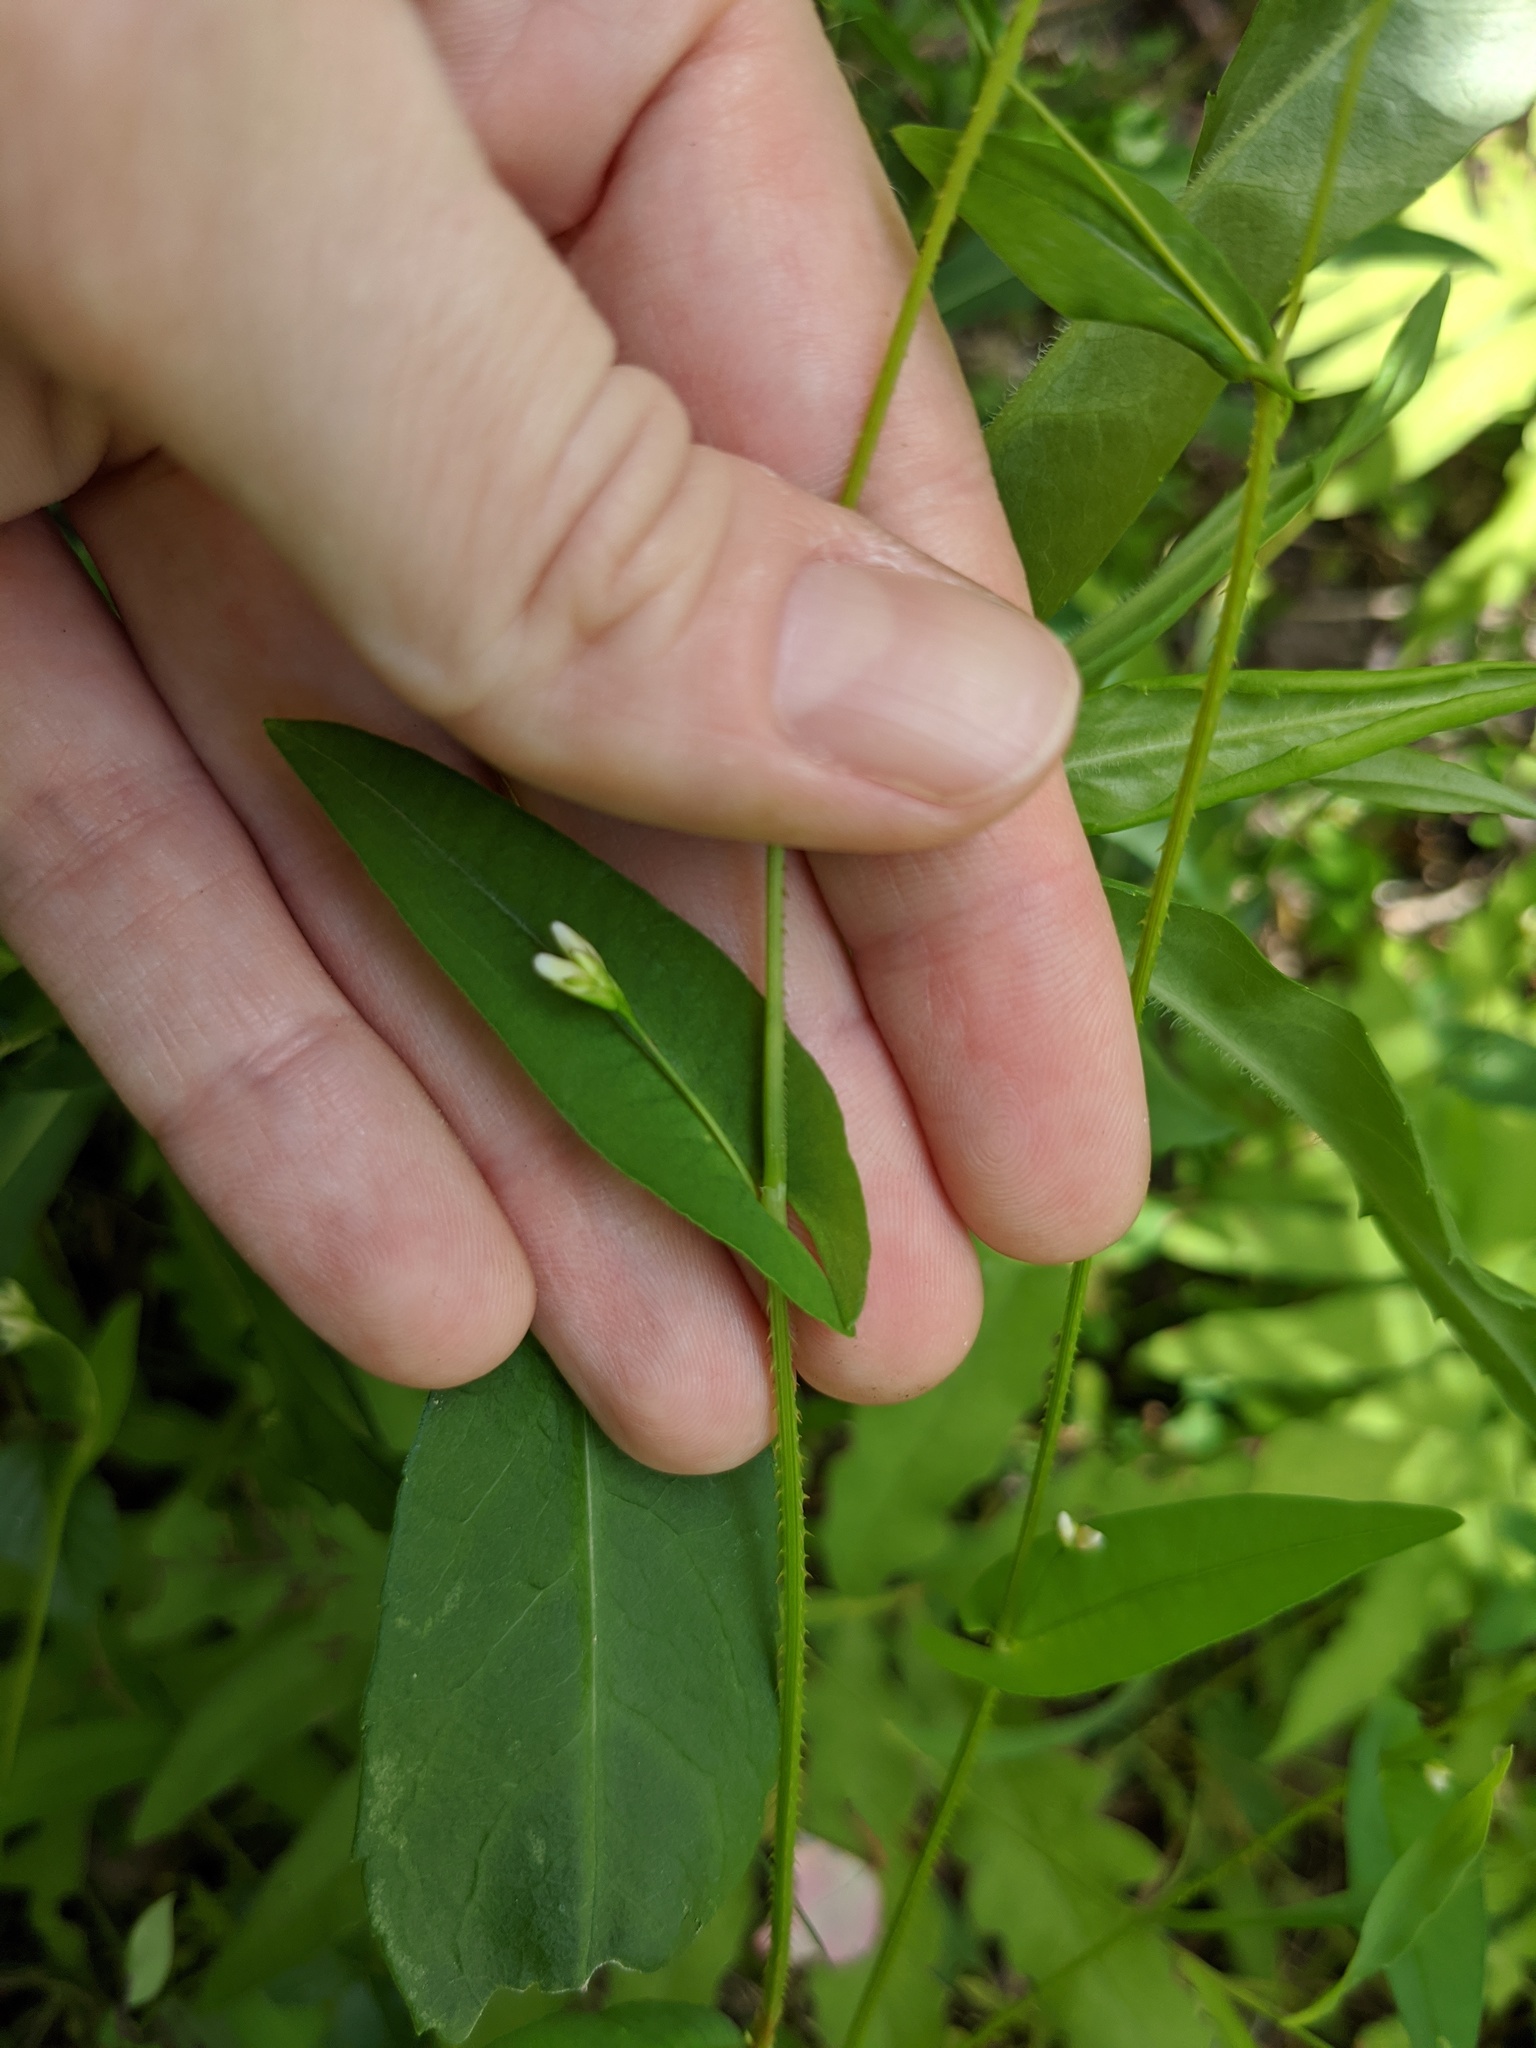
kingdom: Plantae
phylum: Tracheophyta
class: Magnoliopsida
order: Caryophyllales
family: Polygonaceae
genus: Persicaria
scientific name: Persicaria sagittata
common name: American tearthumb
